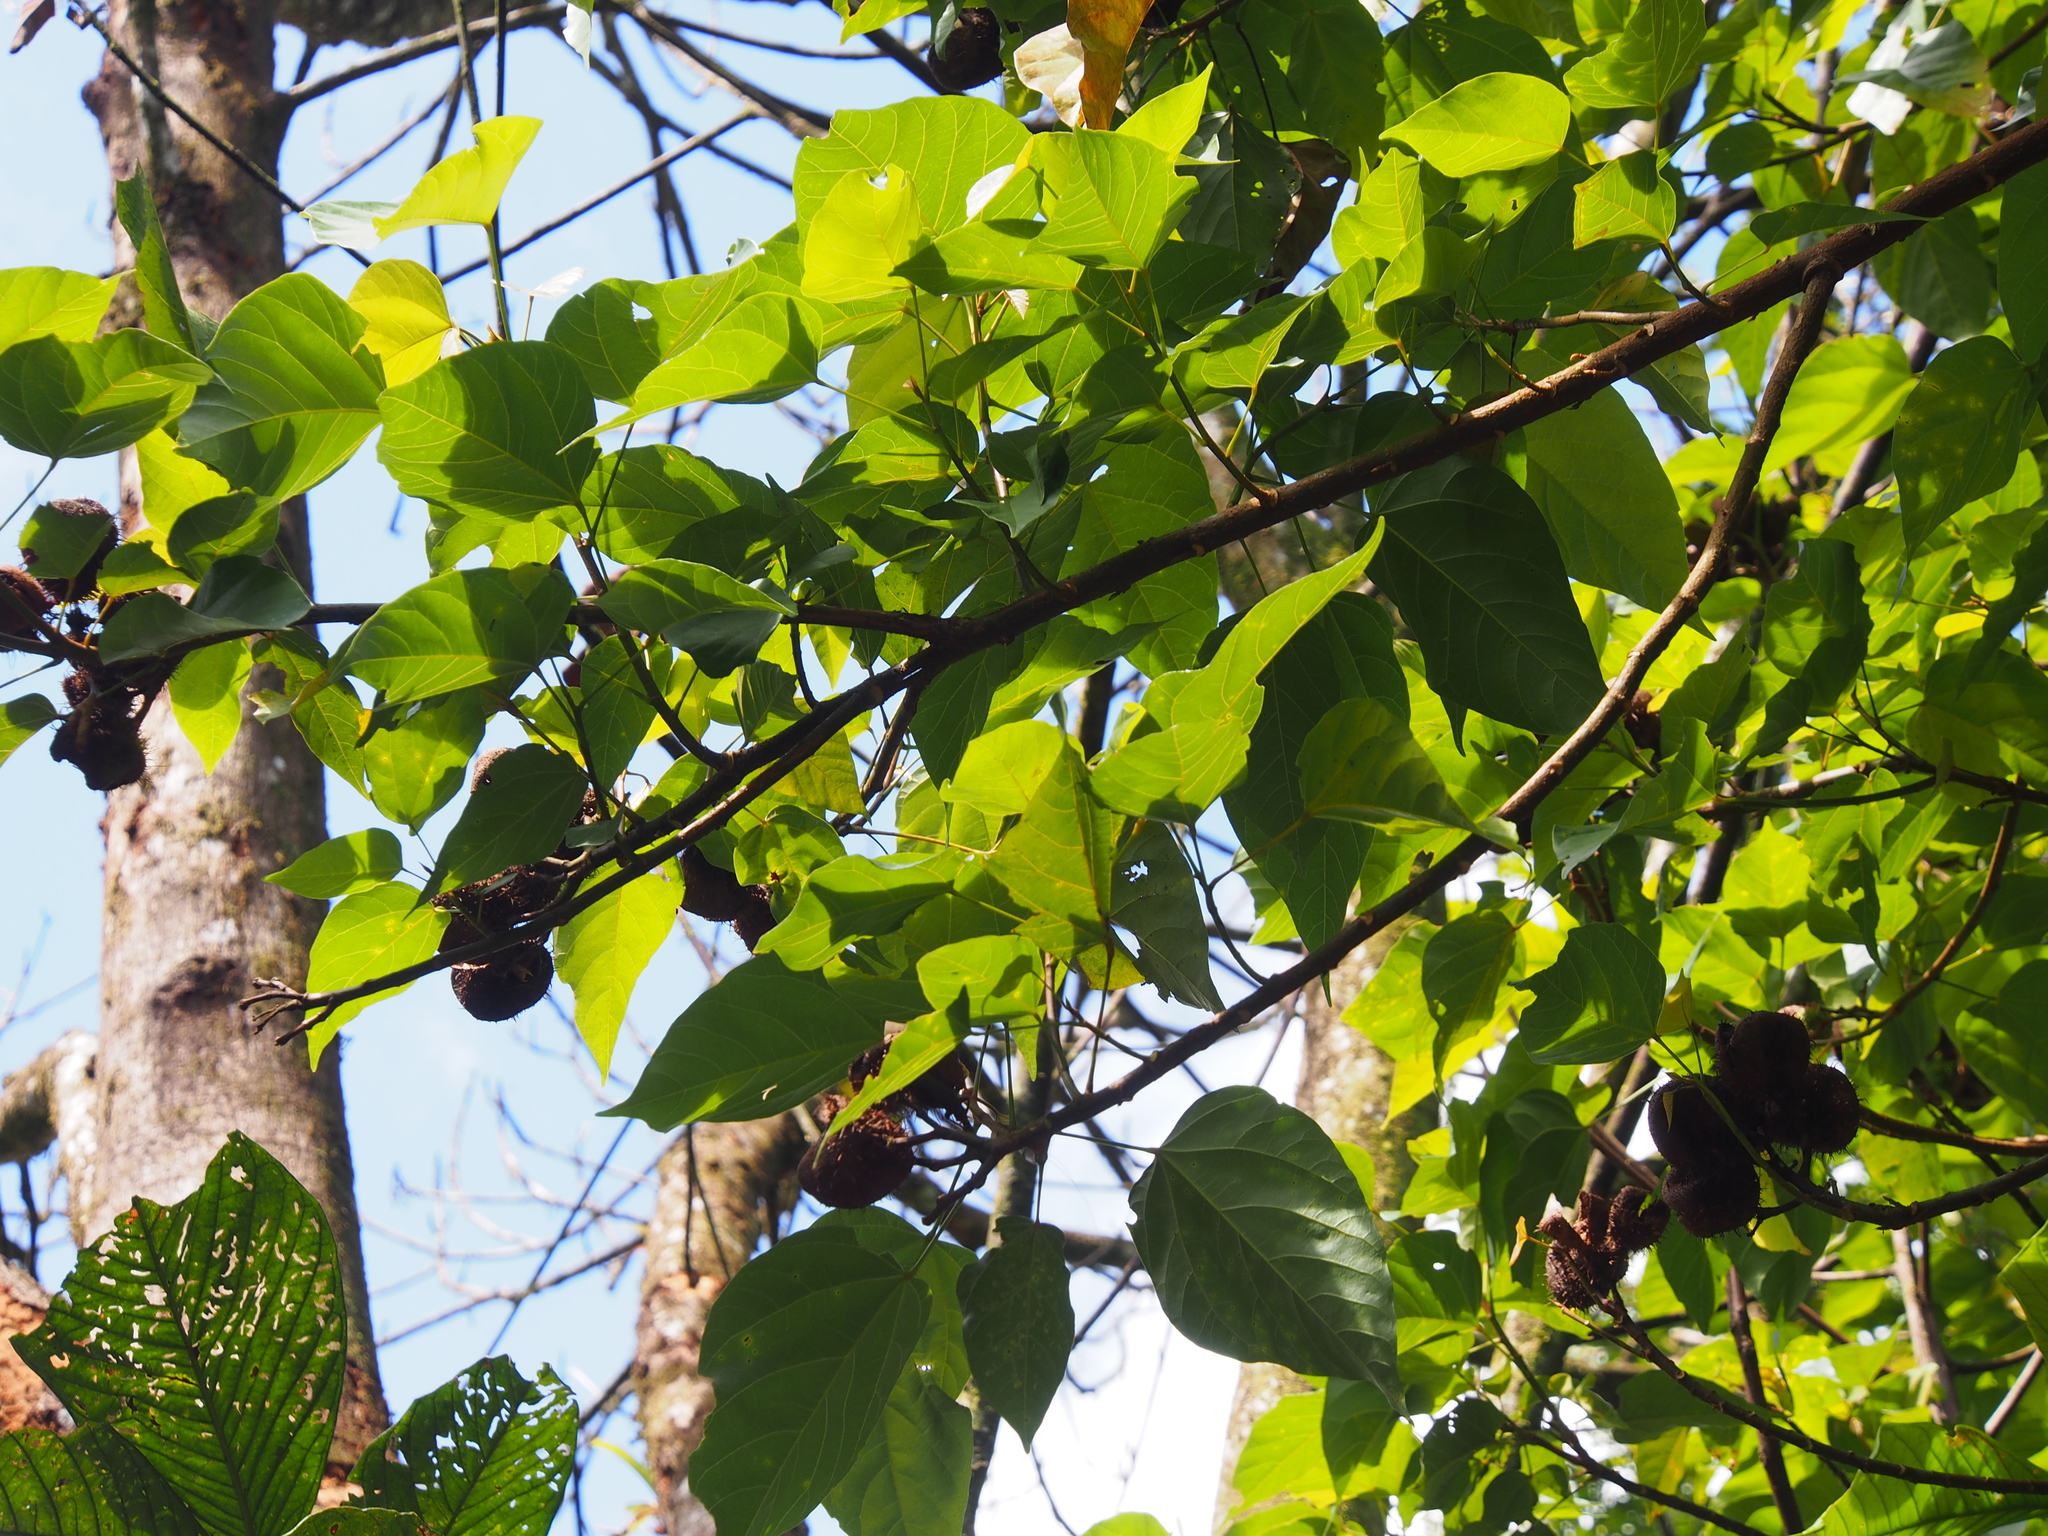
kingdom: Plantae
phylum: Tracheophyta
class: Magnoliopsida
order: Malvales
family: Bixaceae
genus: Bixa
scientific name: Bixa orellana
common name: Lipsticktree
